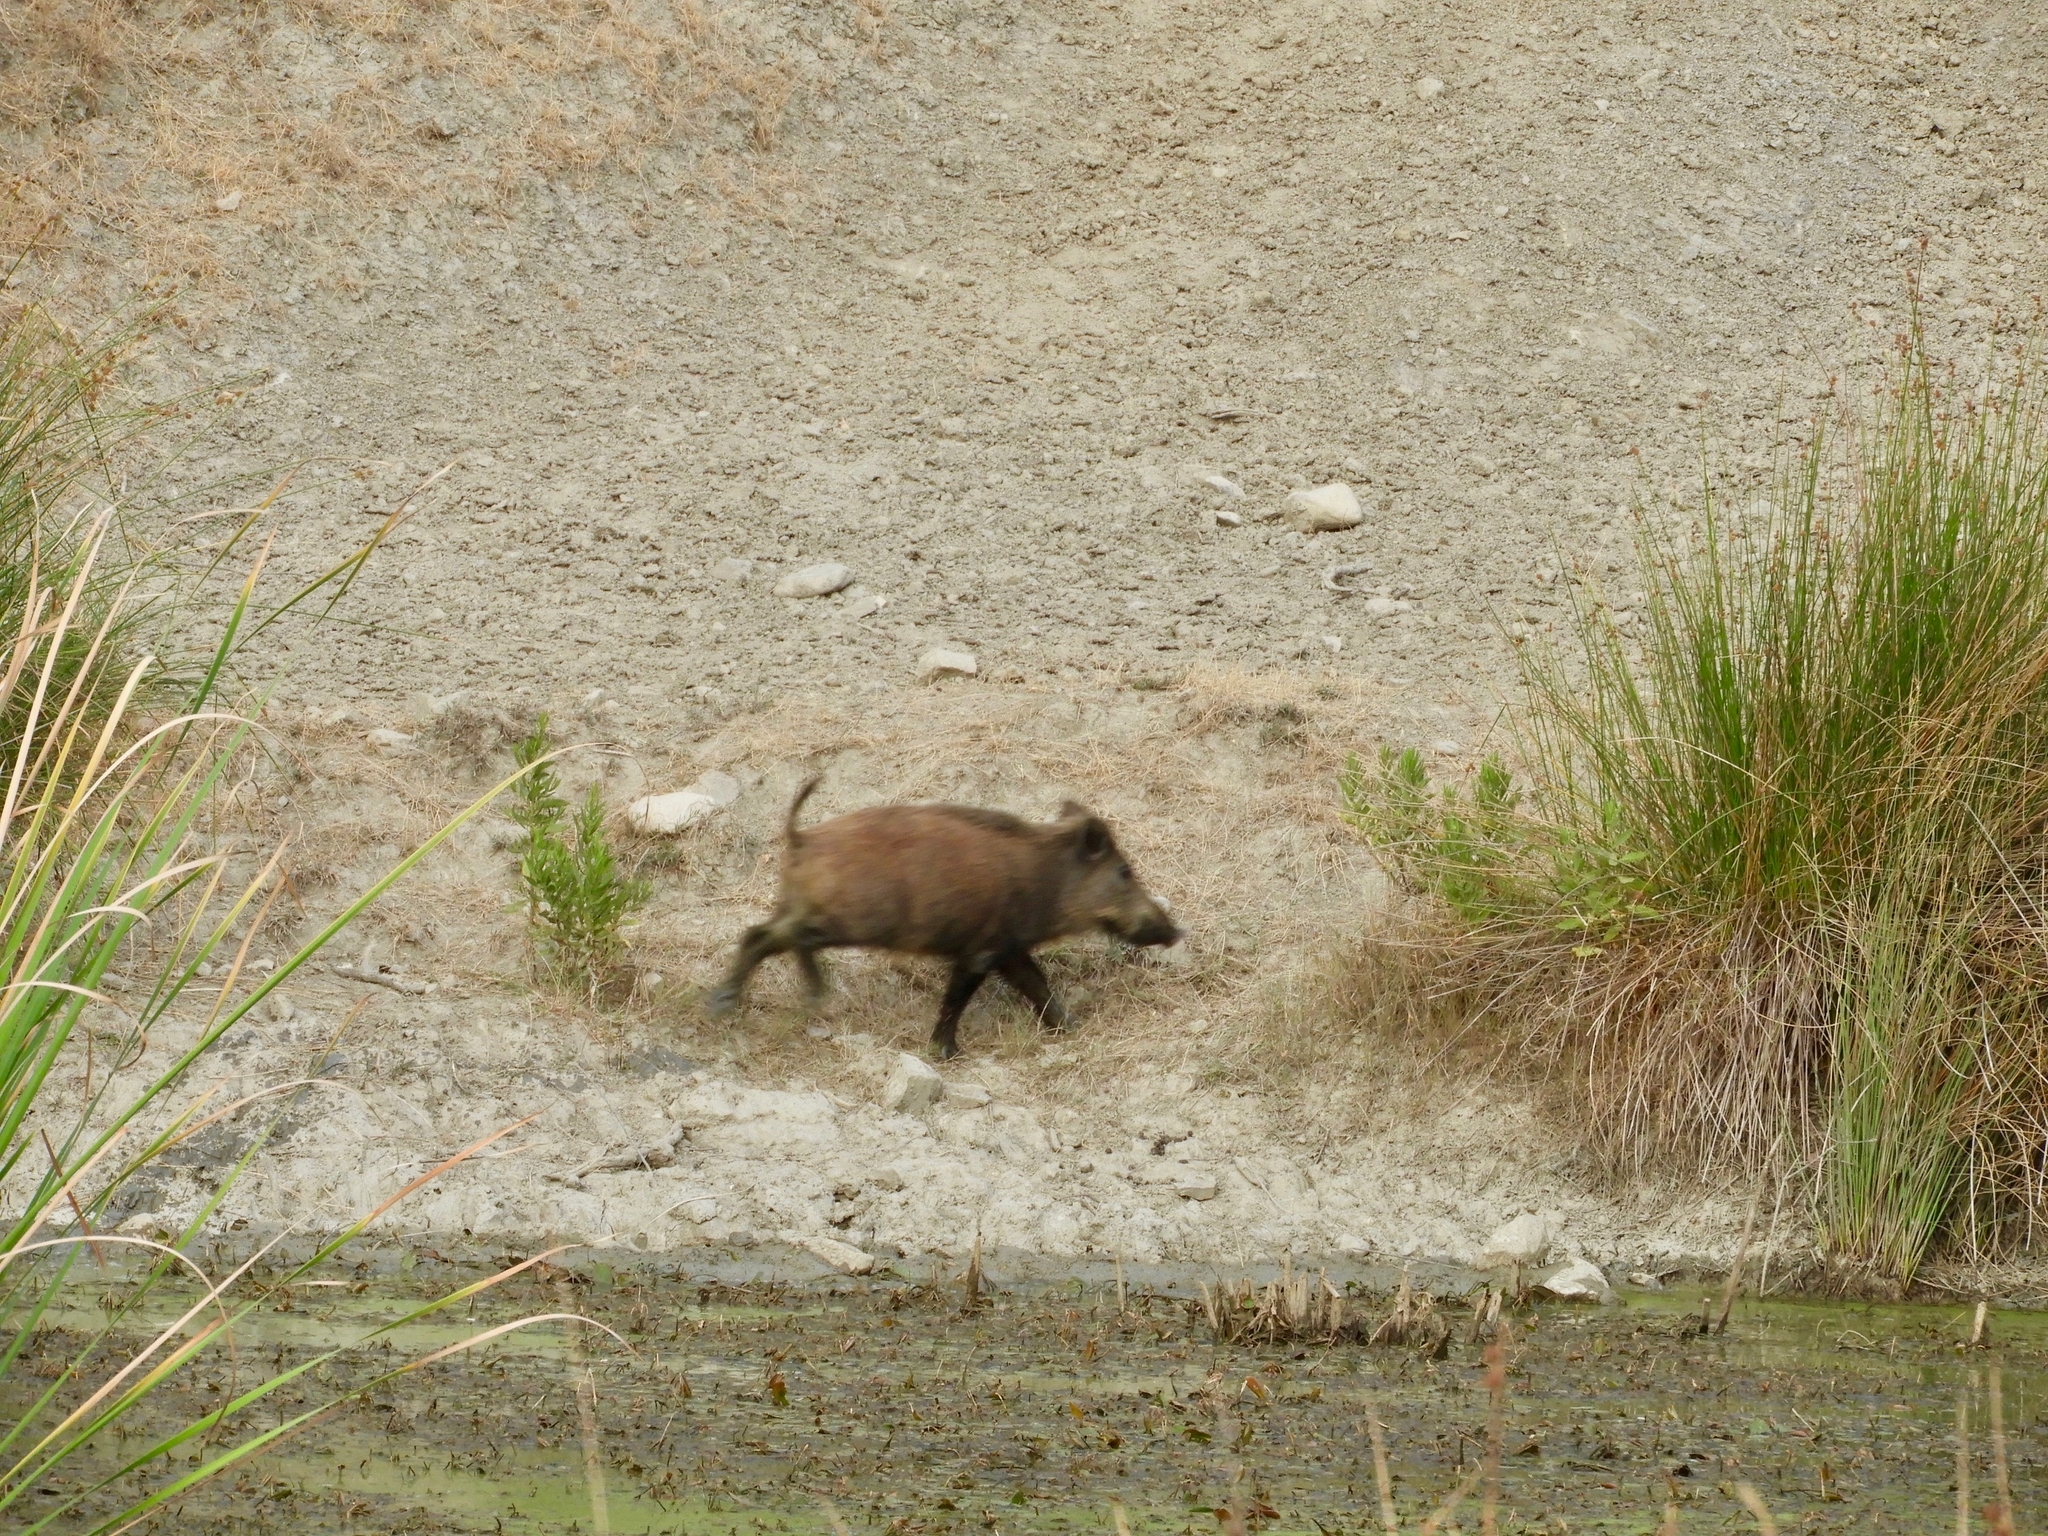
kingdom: Animalia
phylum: Chordata
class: Mammalia
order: Artiodactyla
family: Suidae
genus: Sus
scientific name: Sus scrofa
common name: Wild boar
